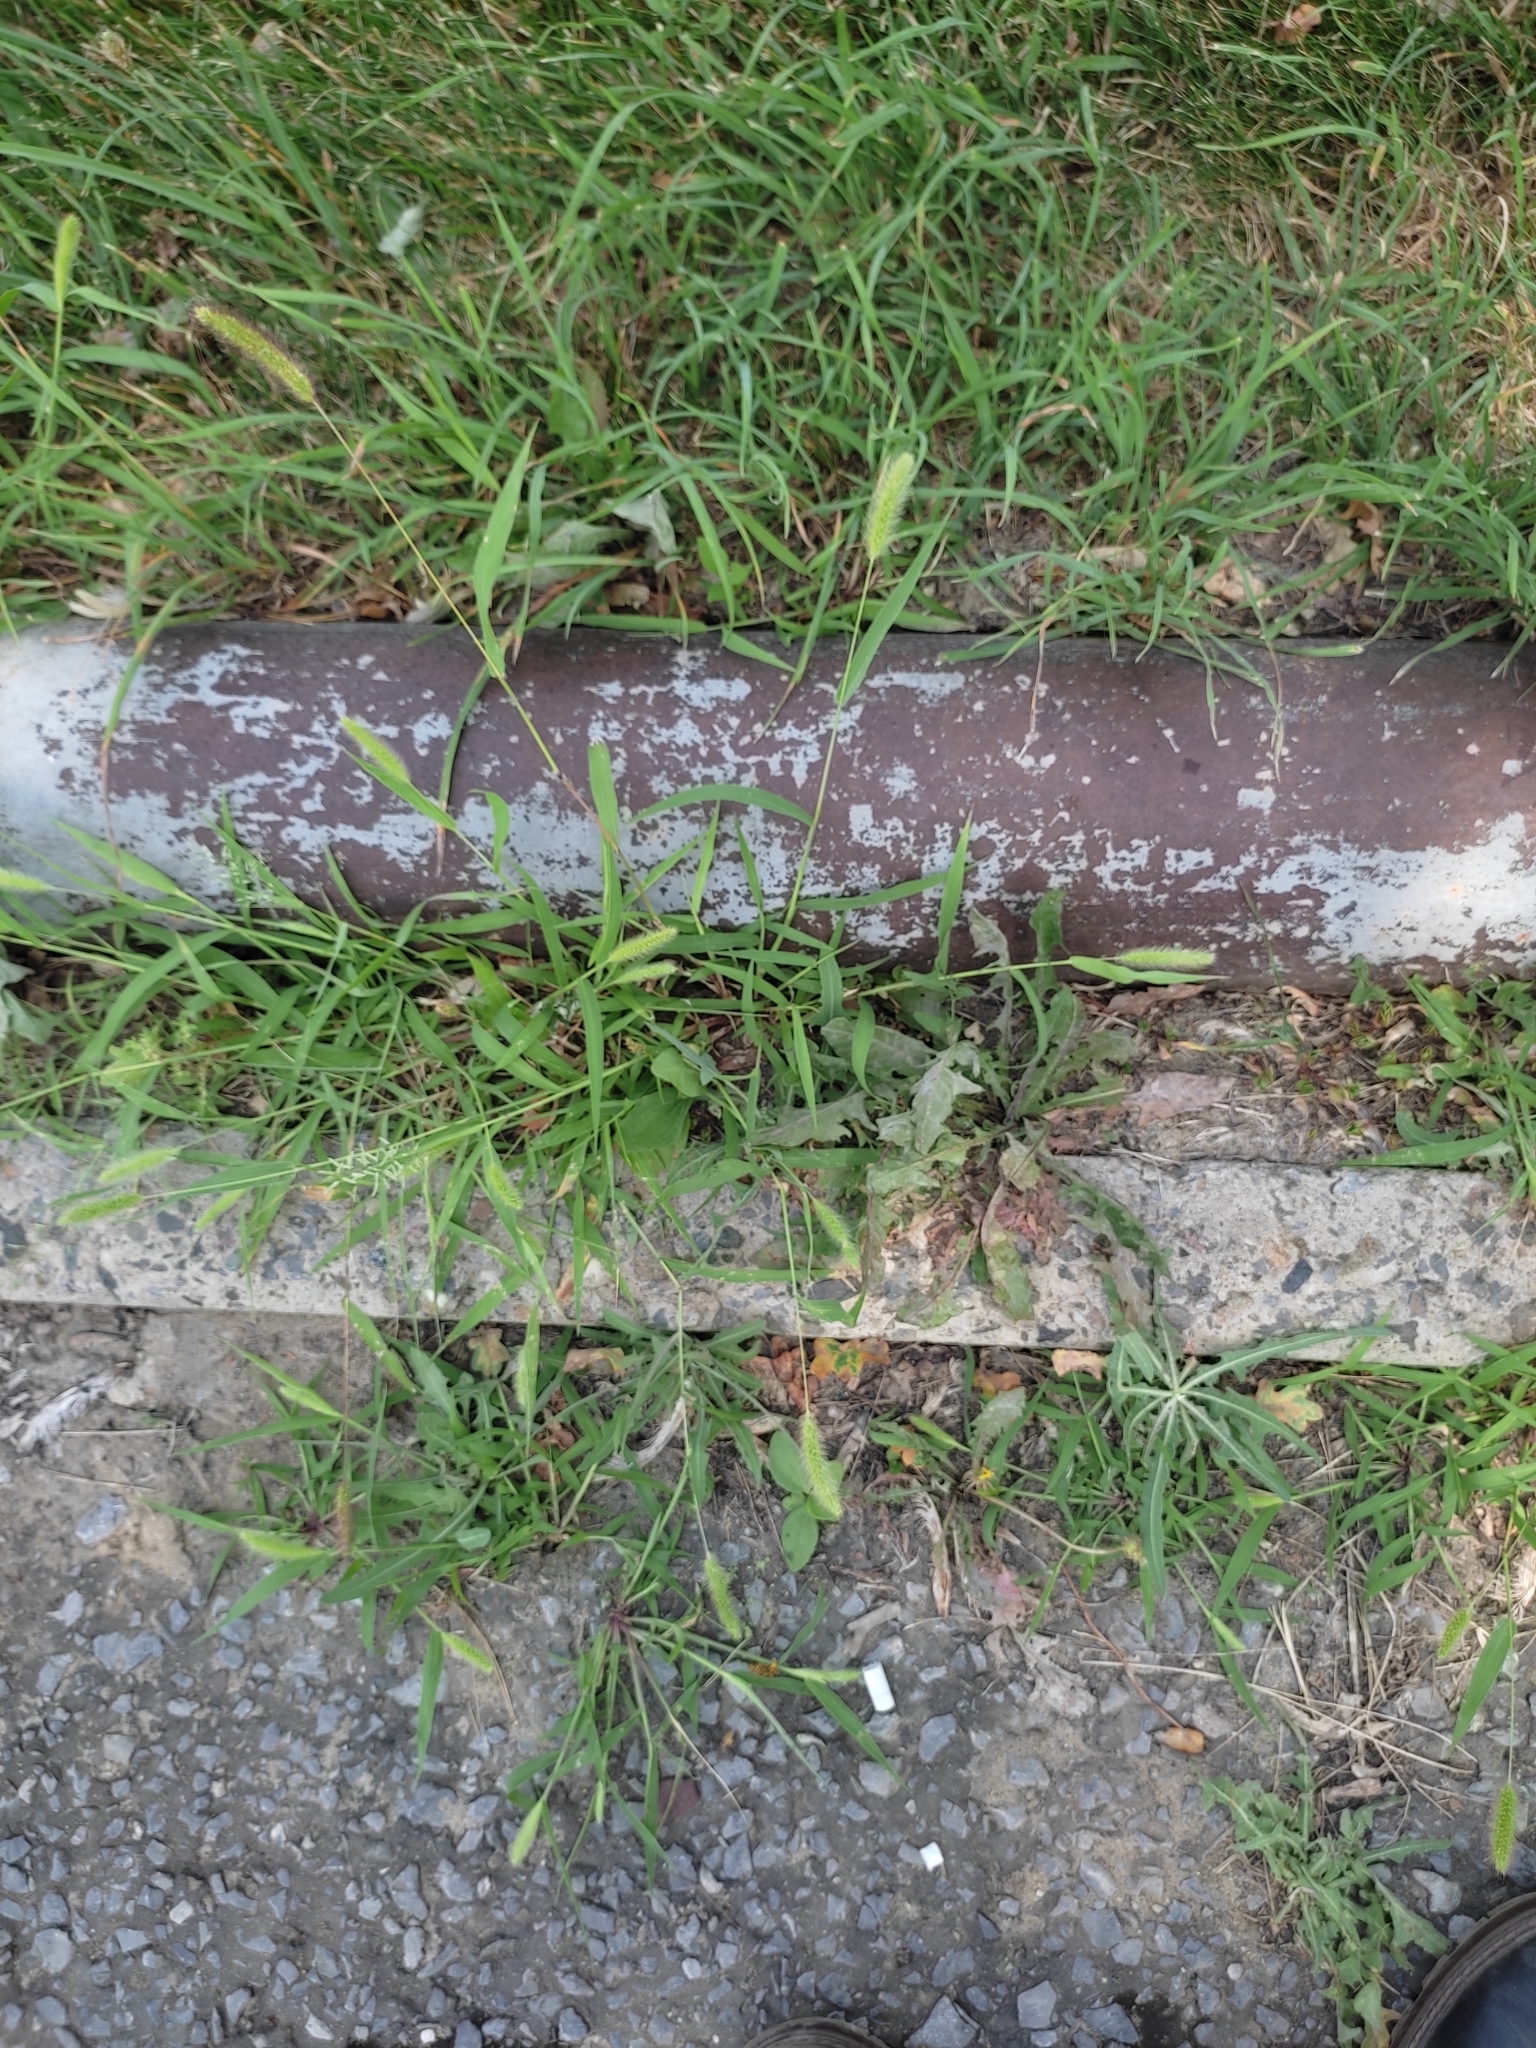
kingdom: Plantae
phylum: Tracheophyta
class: Liliopsida
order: Poales
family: Poaceae
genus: Setaria
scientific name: Setaria viridis
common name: Green bristlegrass
